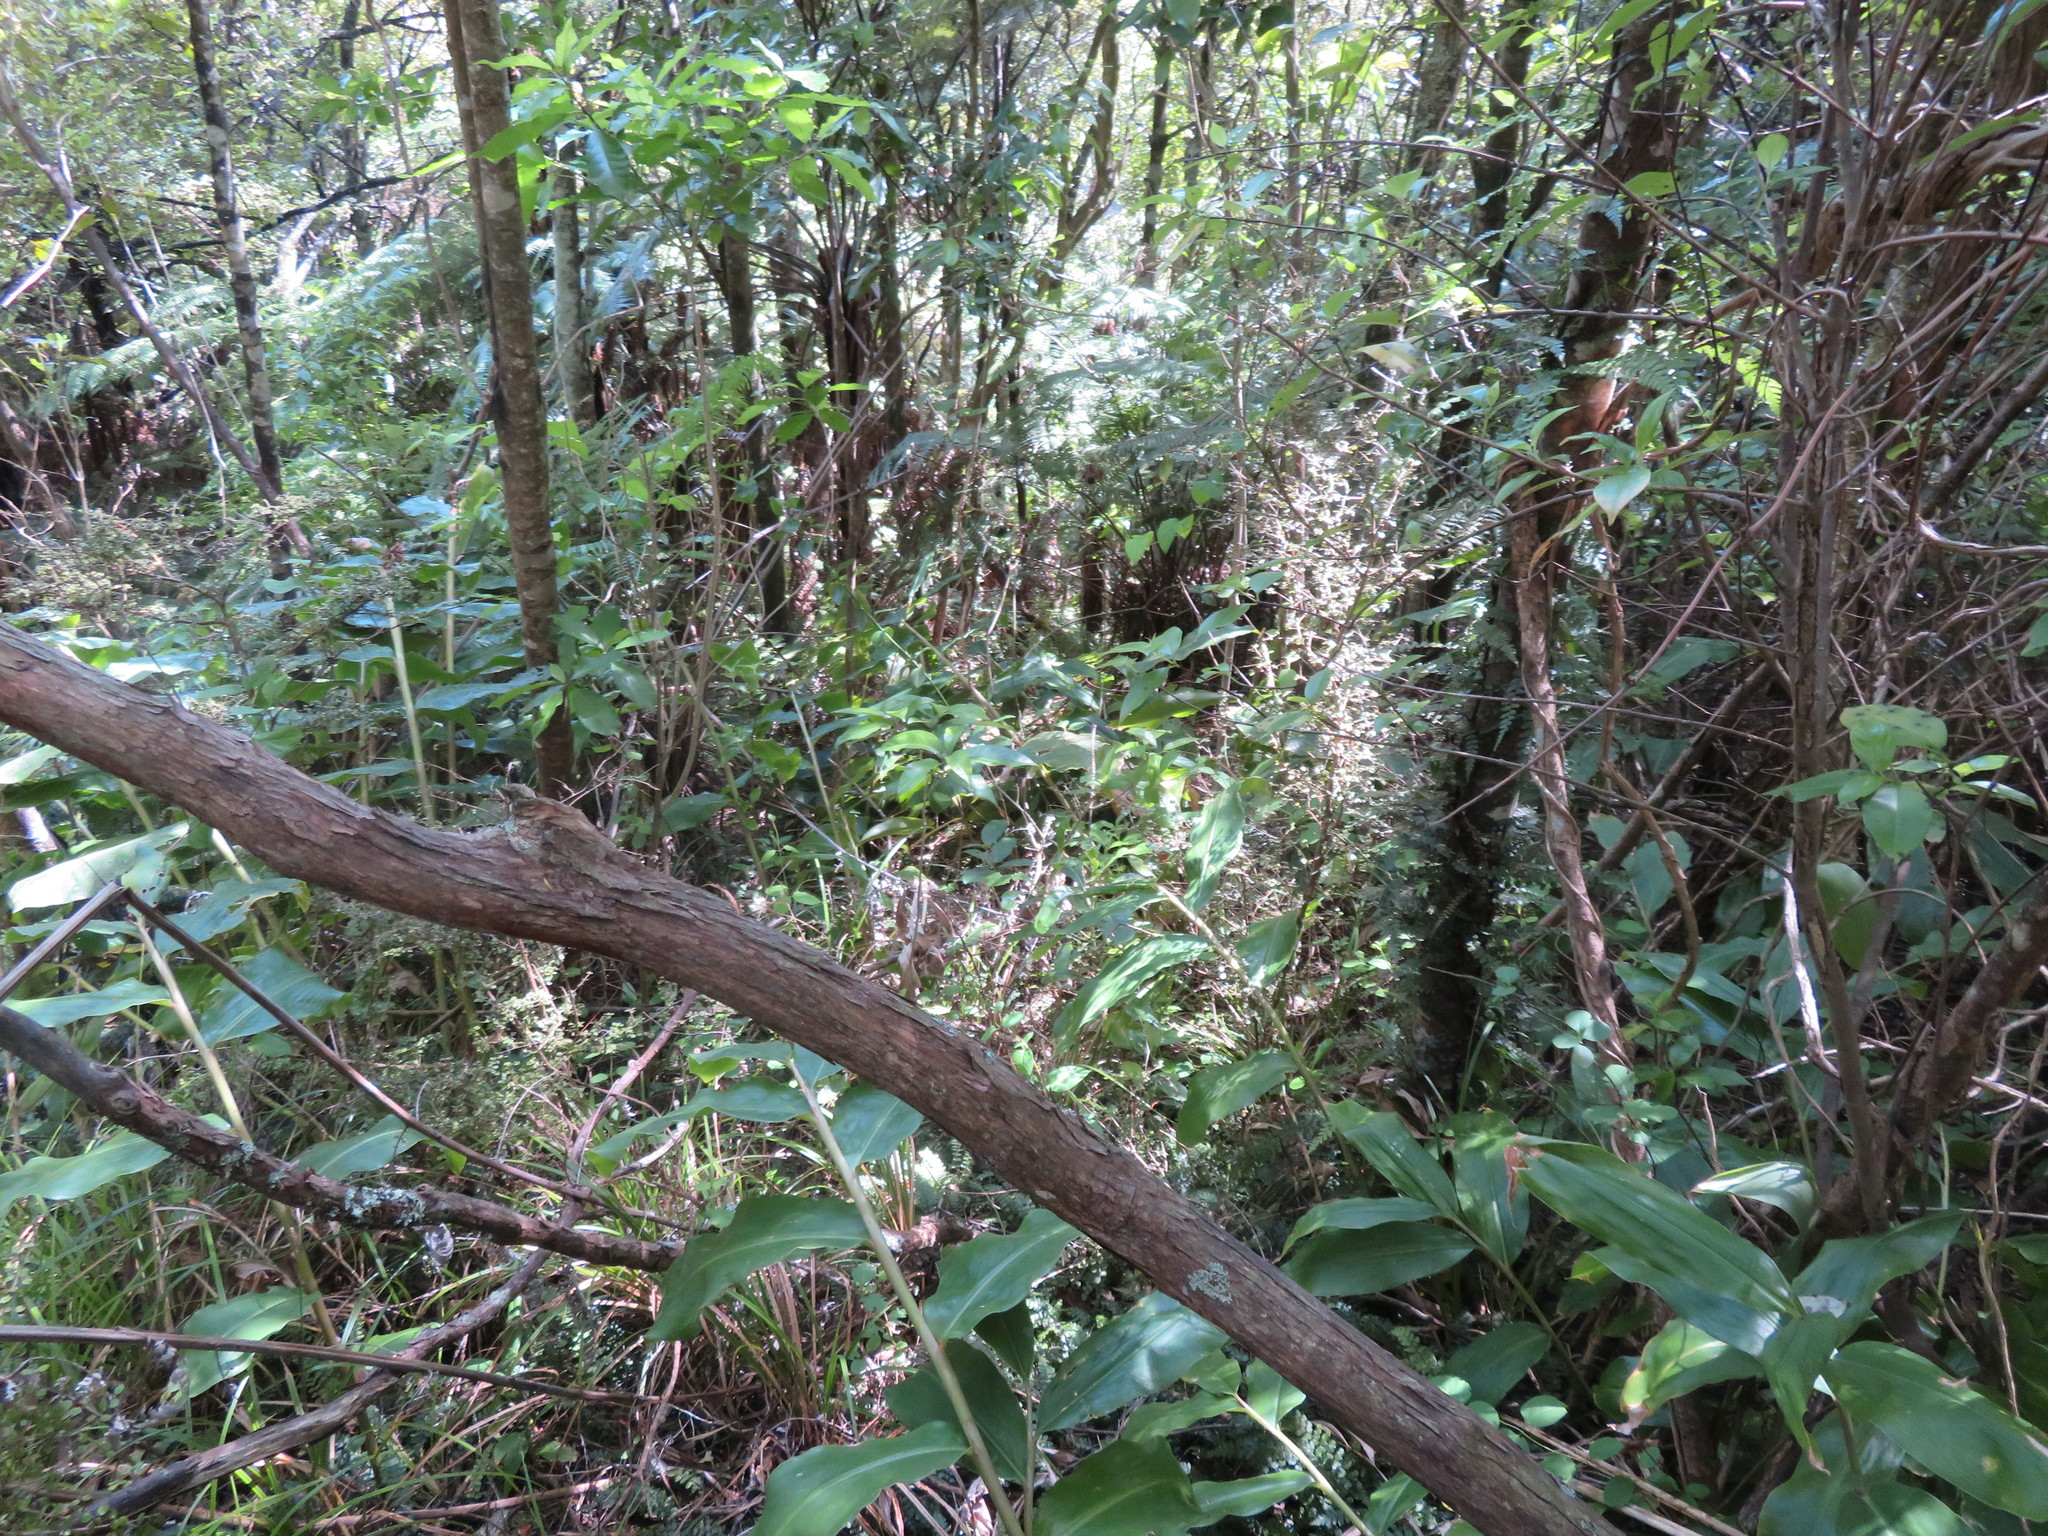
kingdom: Plantae
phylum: Tracheophyta
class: Liliopsida
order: Zingiberales
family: Zingiberaceae
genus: Hedychium
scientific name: Hedychium gardnerianum
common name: Himalayan ginger
